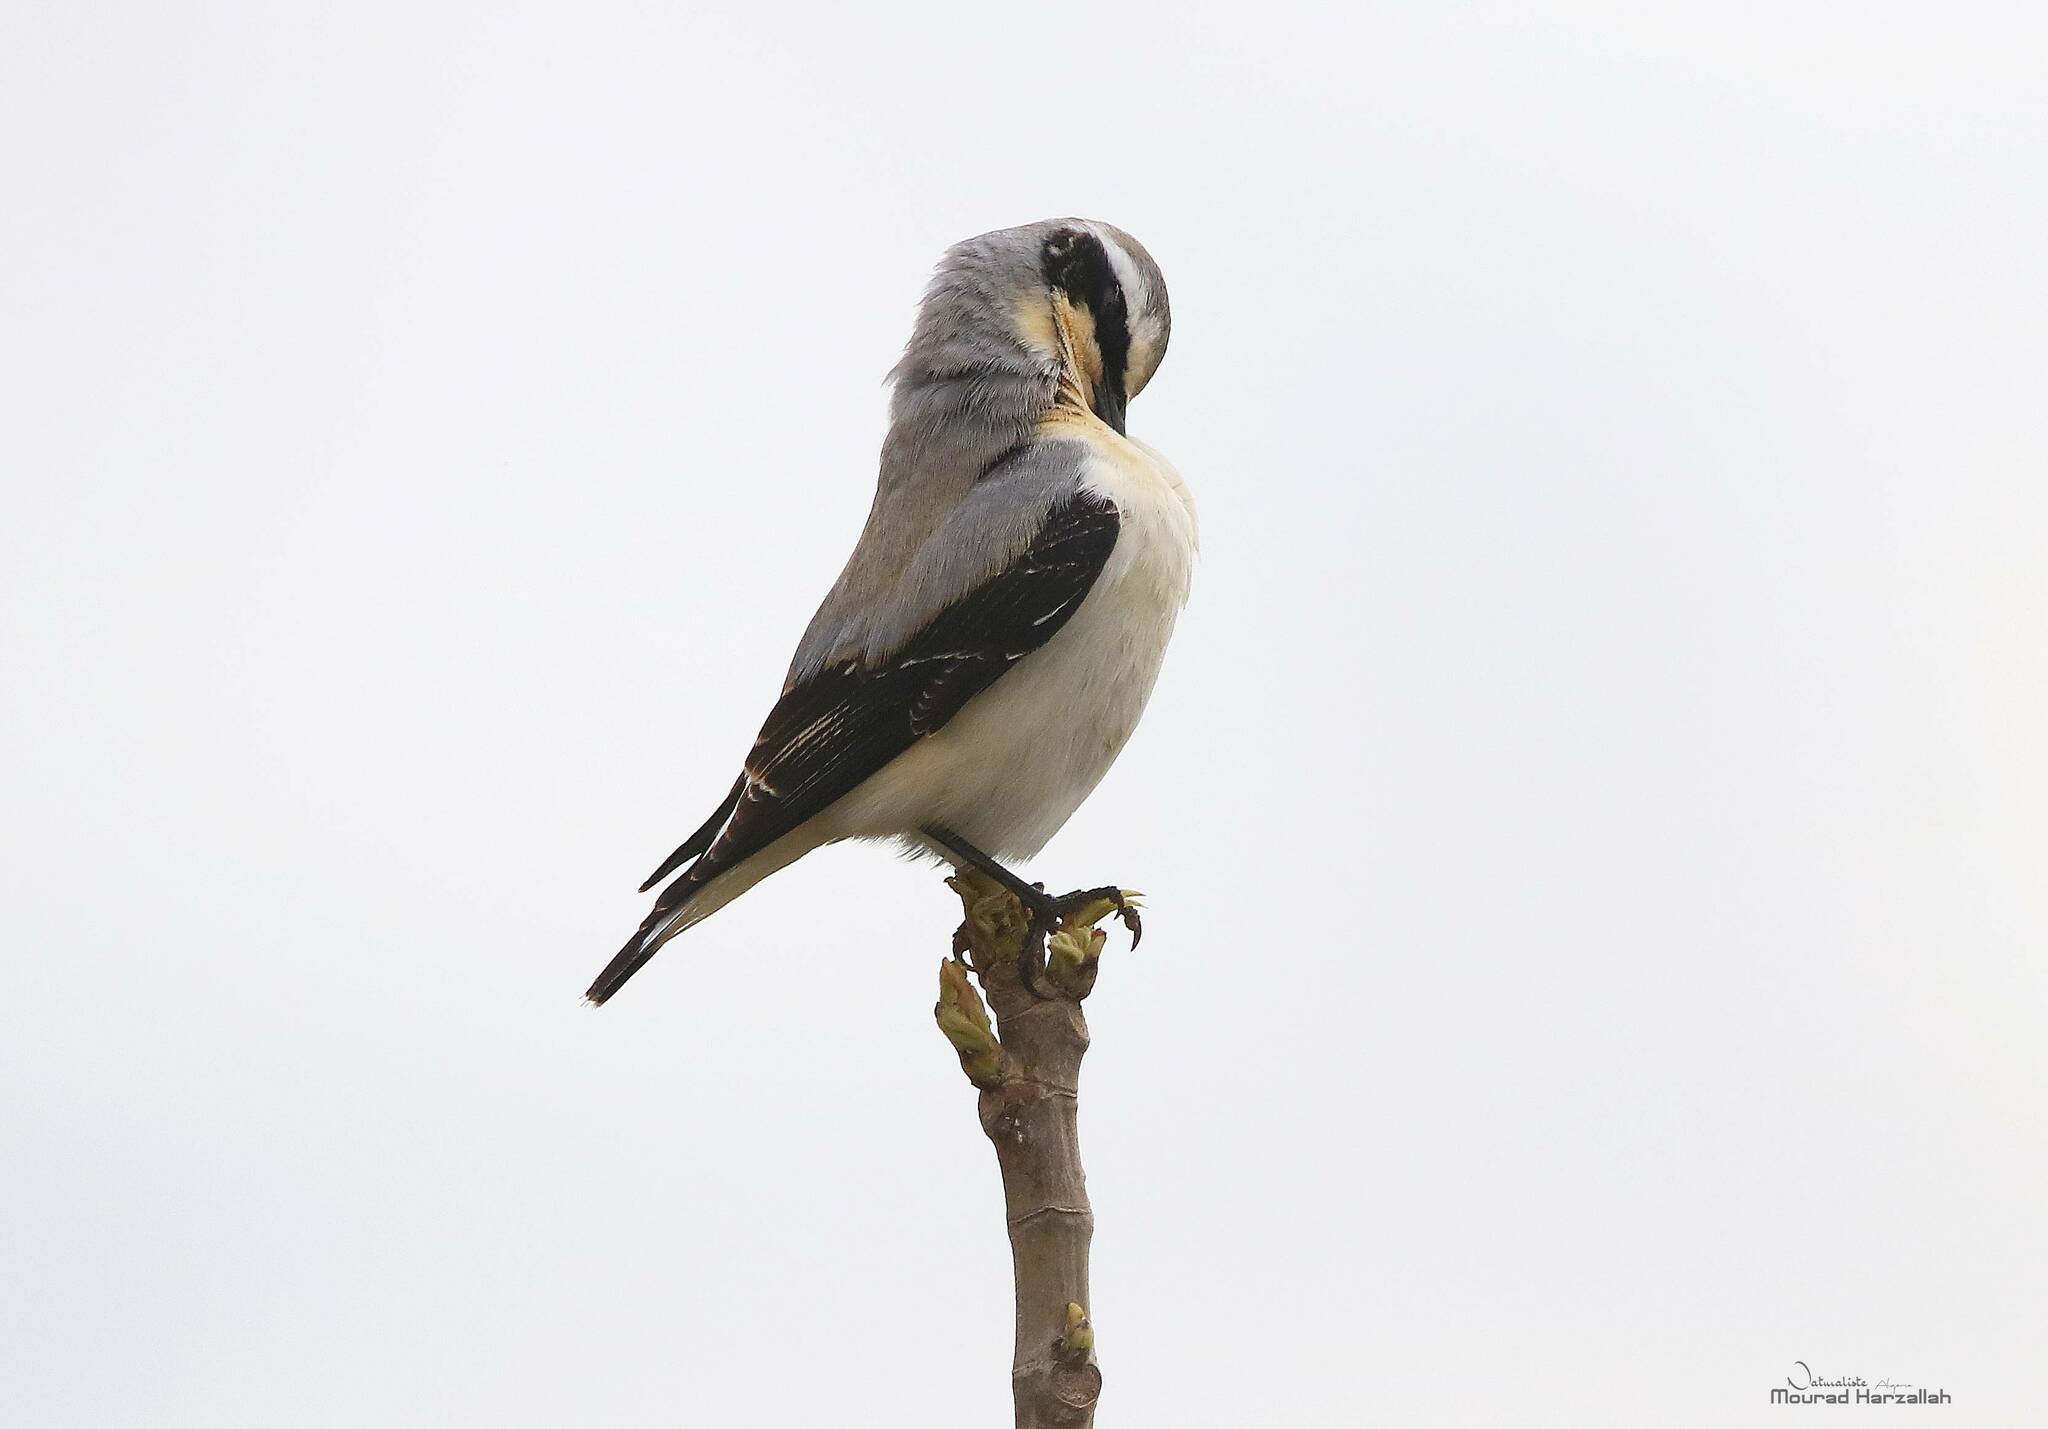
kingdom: Animalia
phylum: Chordata
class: Aves
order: Passeriformes
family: Muscicapidae
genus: Oenanthe
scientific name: Oenanthe oenanthe
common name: Northern wheatear
